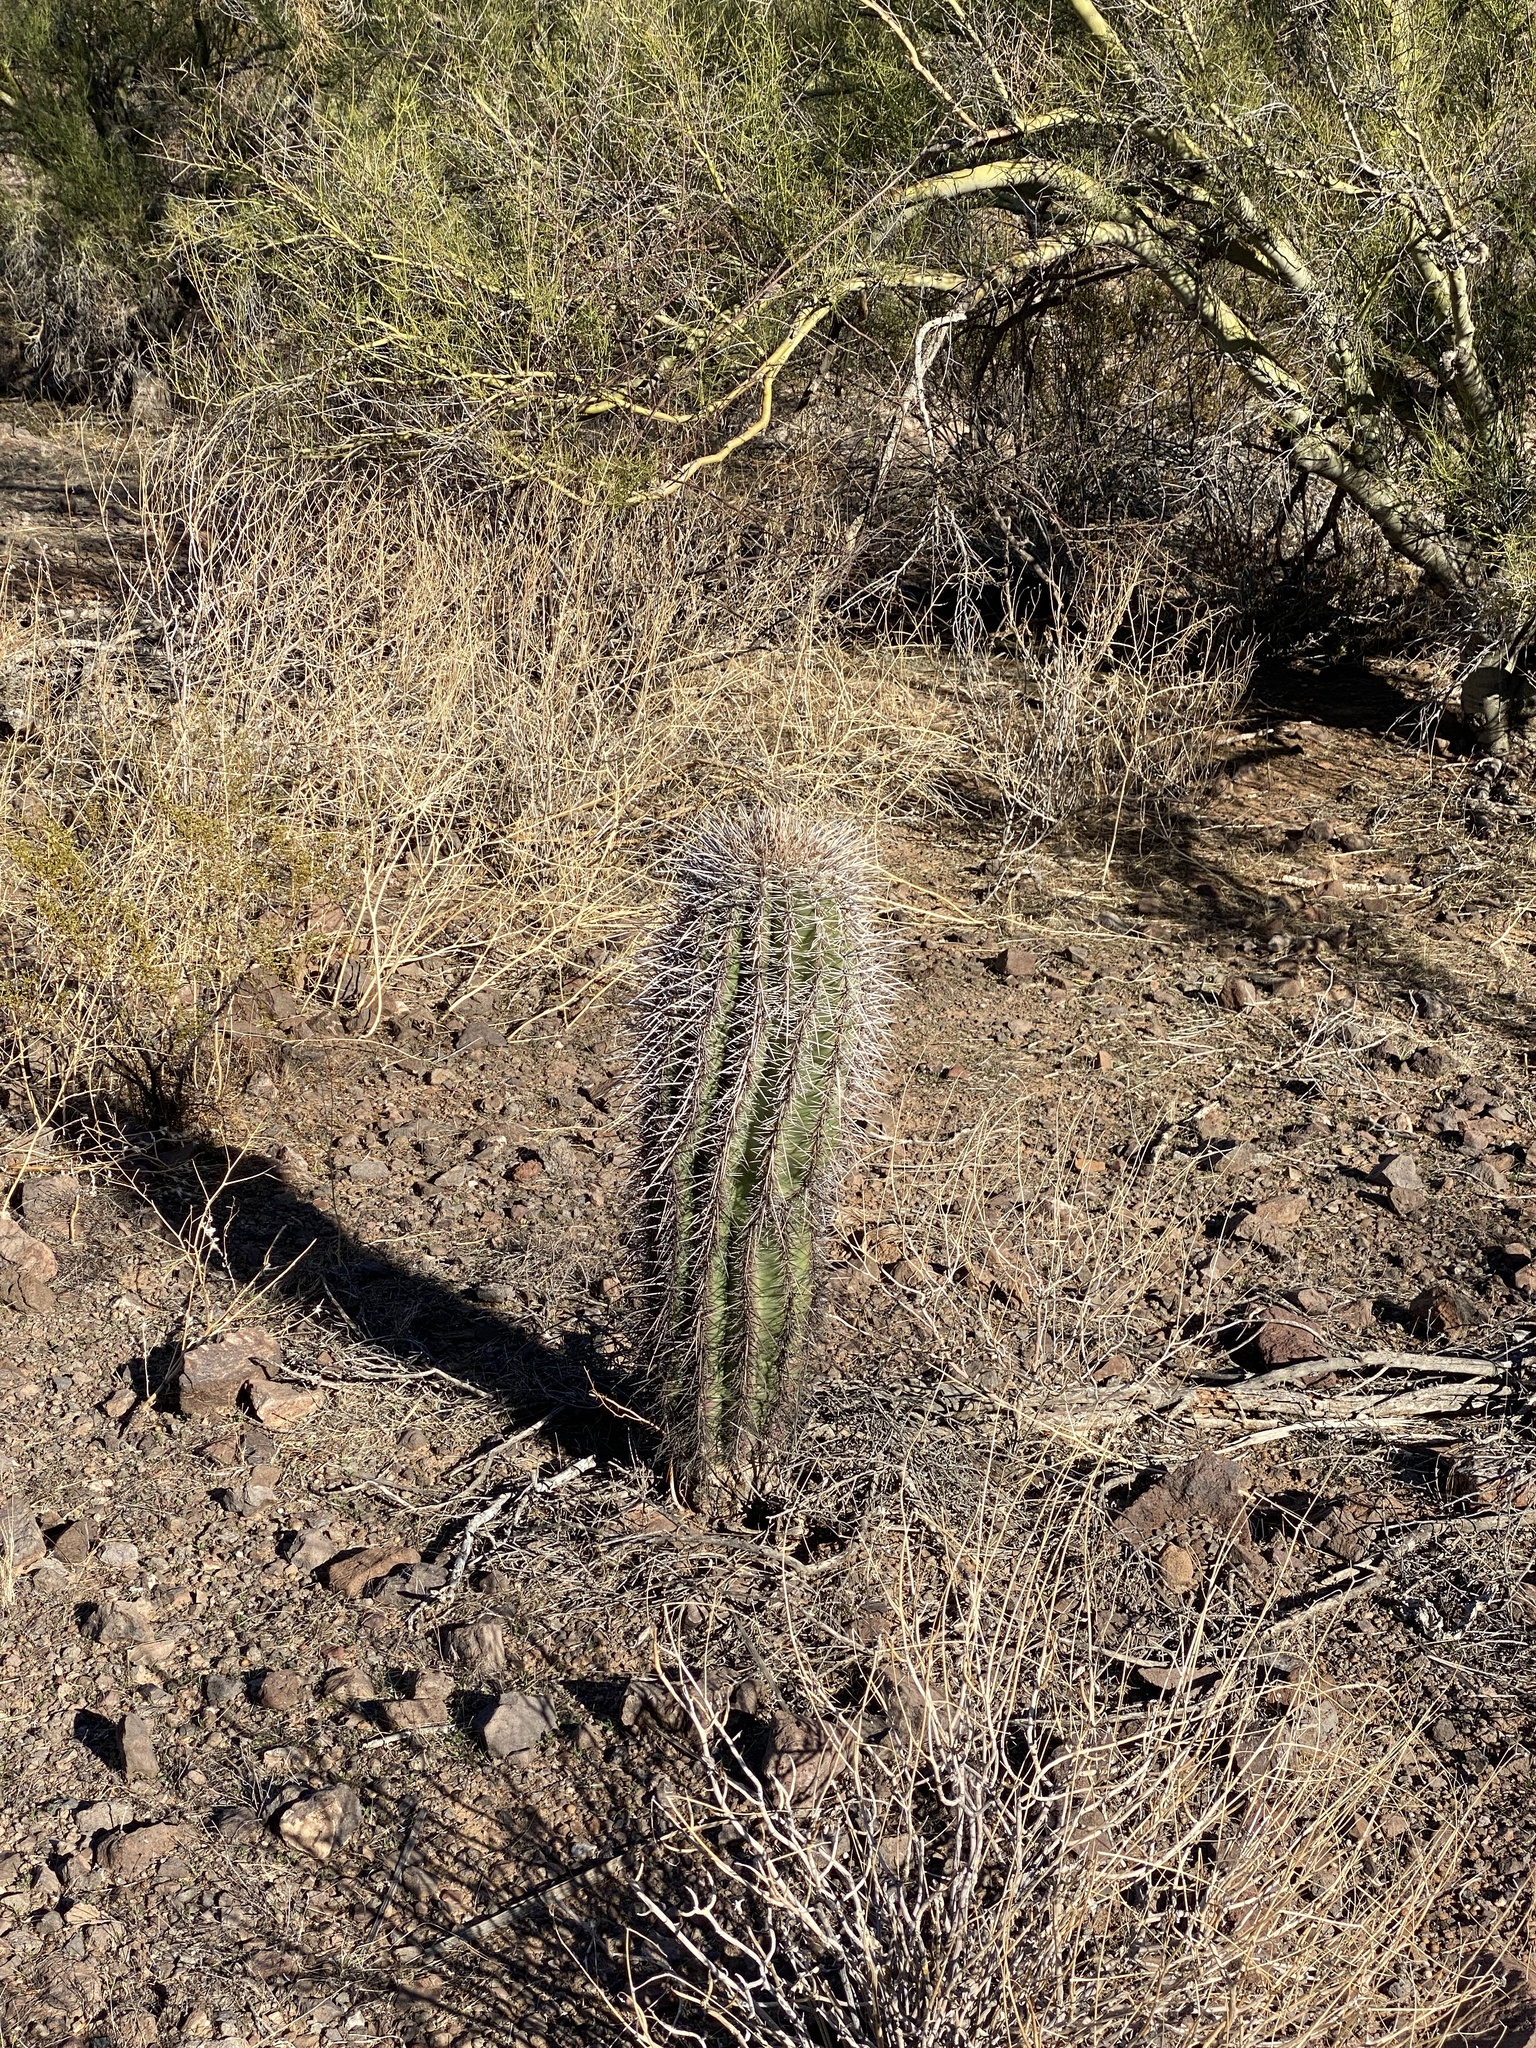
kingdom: Plantae
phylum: Tracheophyta
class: Magnoliopsida
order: Caryophyllales
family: Cactaceae
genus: Carnegiea
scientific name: Carnegiea gigantea
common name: Saguaro
